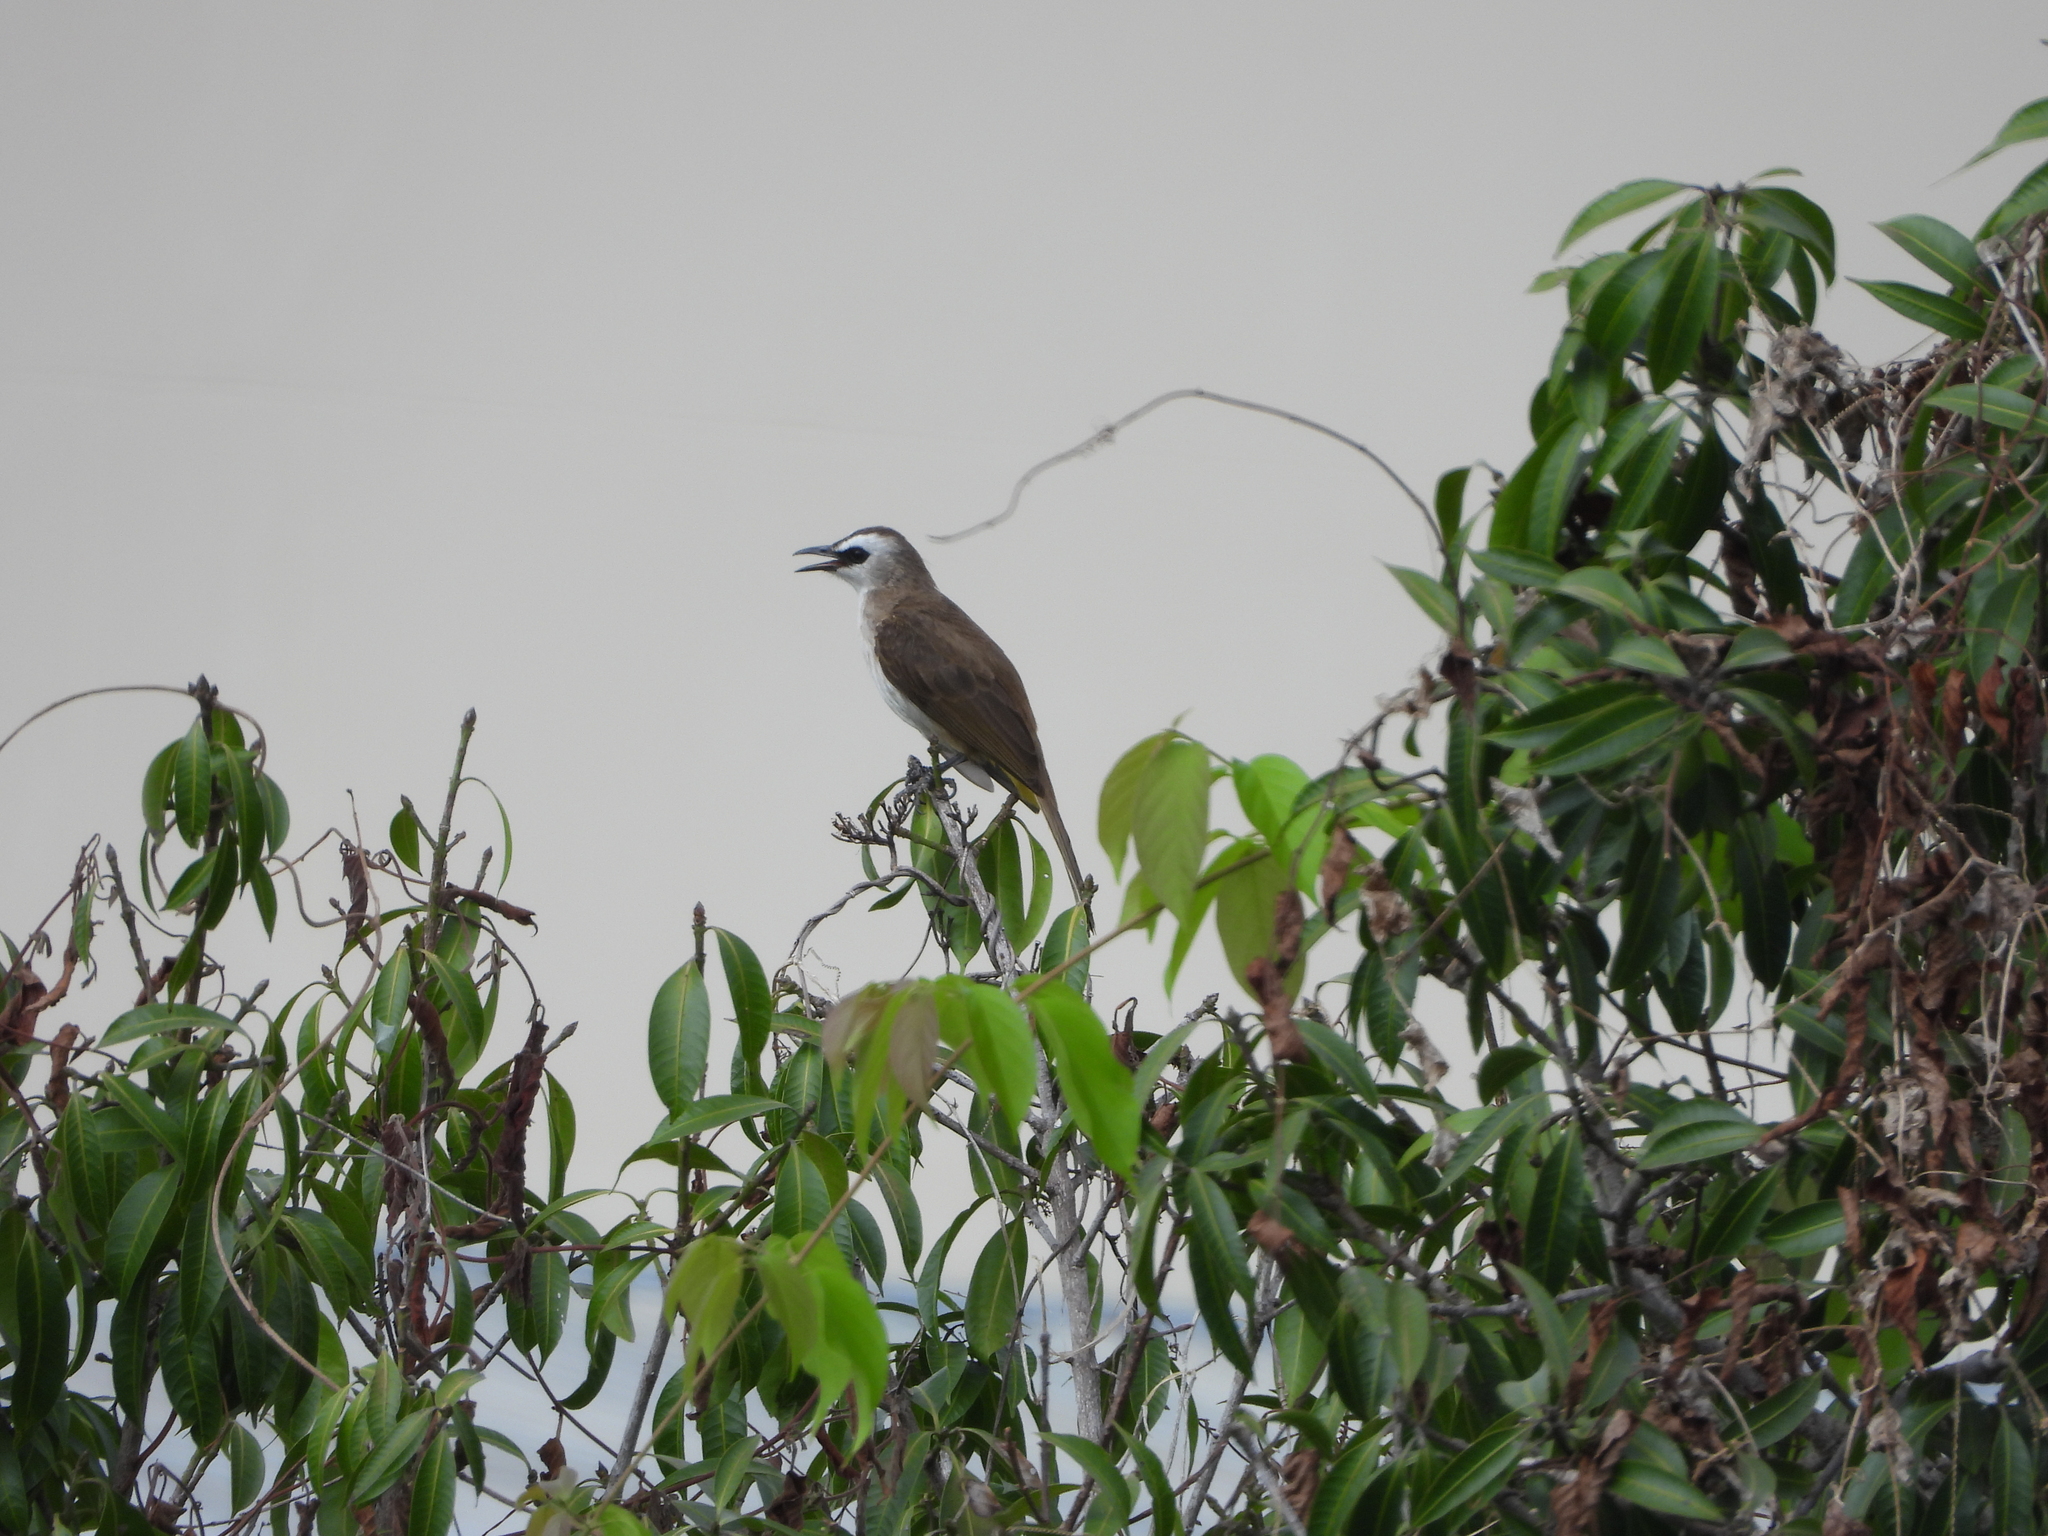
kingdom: Animalia
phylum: Chordata
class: Aves
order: Passeriformes
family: Pycnonotidae
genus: Pycnonotus
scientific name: Pycnonotus goiavier
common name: Yellow-vented bulbul
